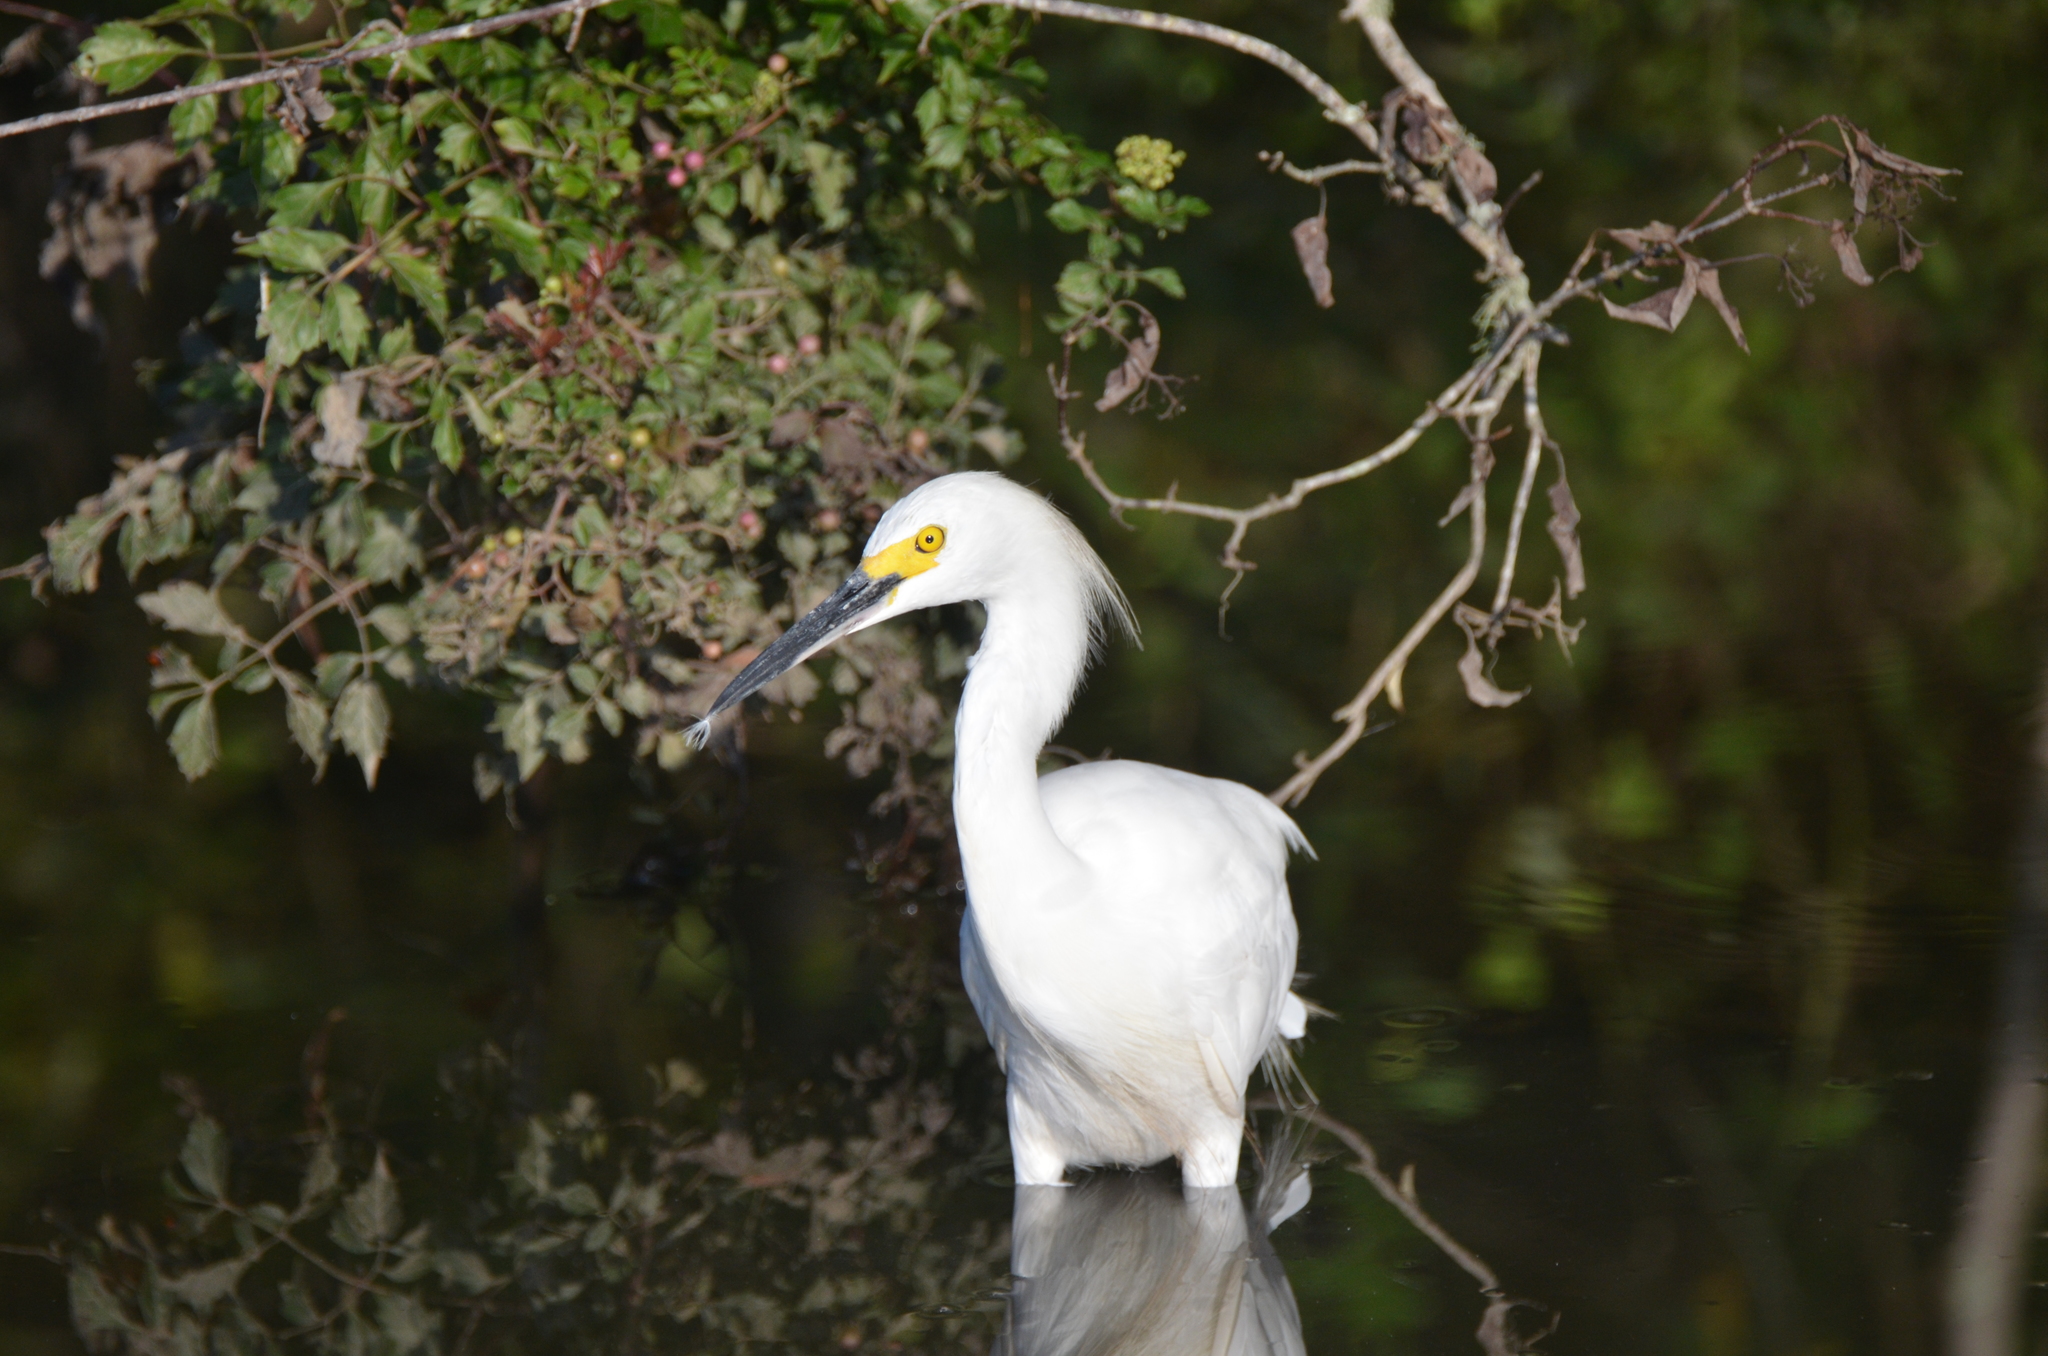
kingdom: Animalia
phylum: Chordata
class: Aves
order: Pelecaniformes
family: Ardeidae
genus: Egretta
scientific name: Egretta thula
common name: Snowy egret
